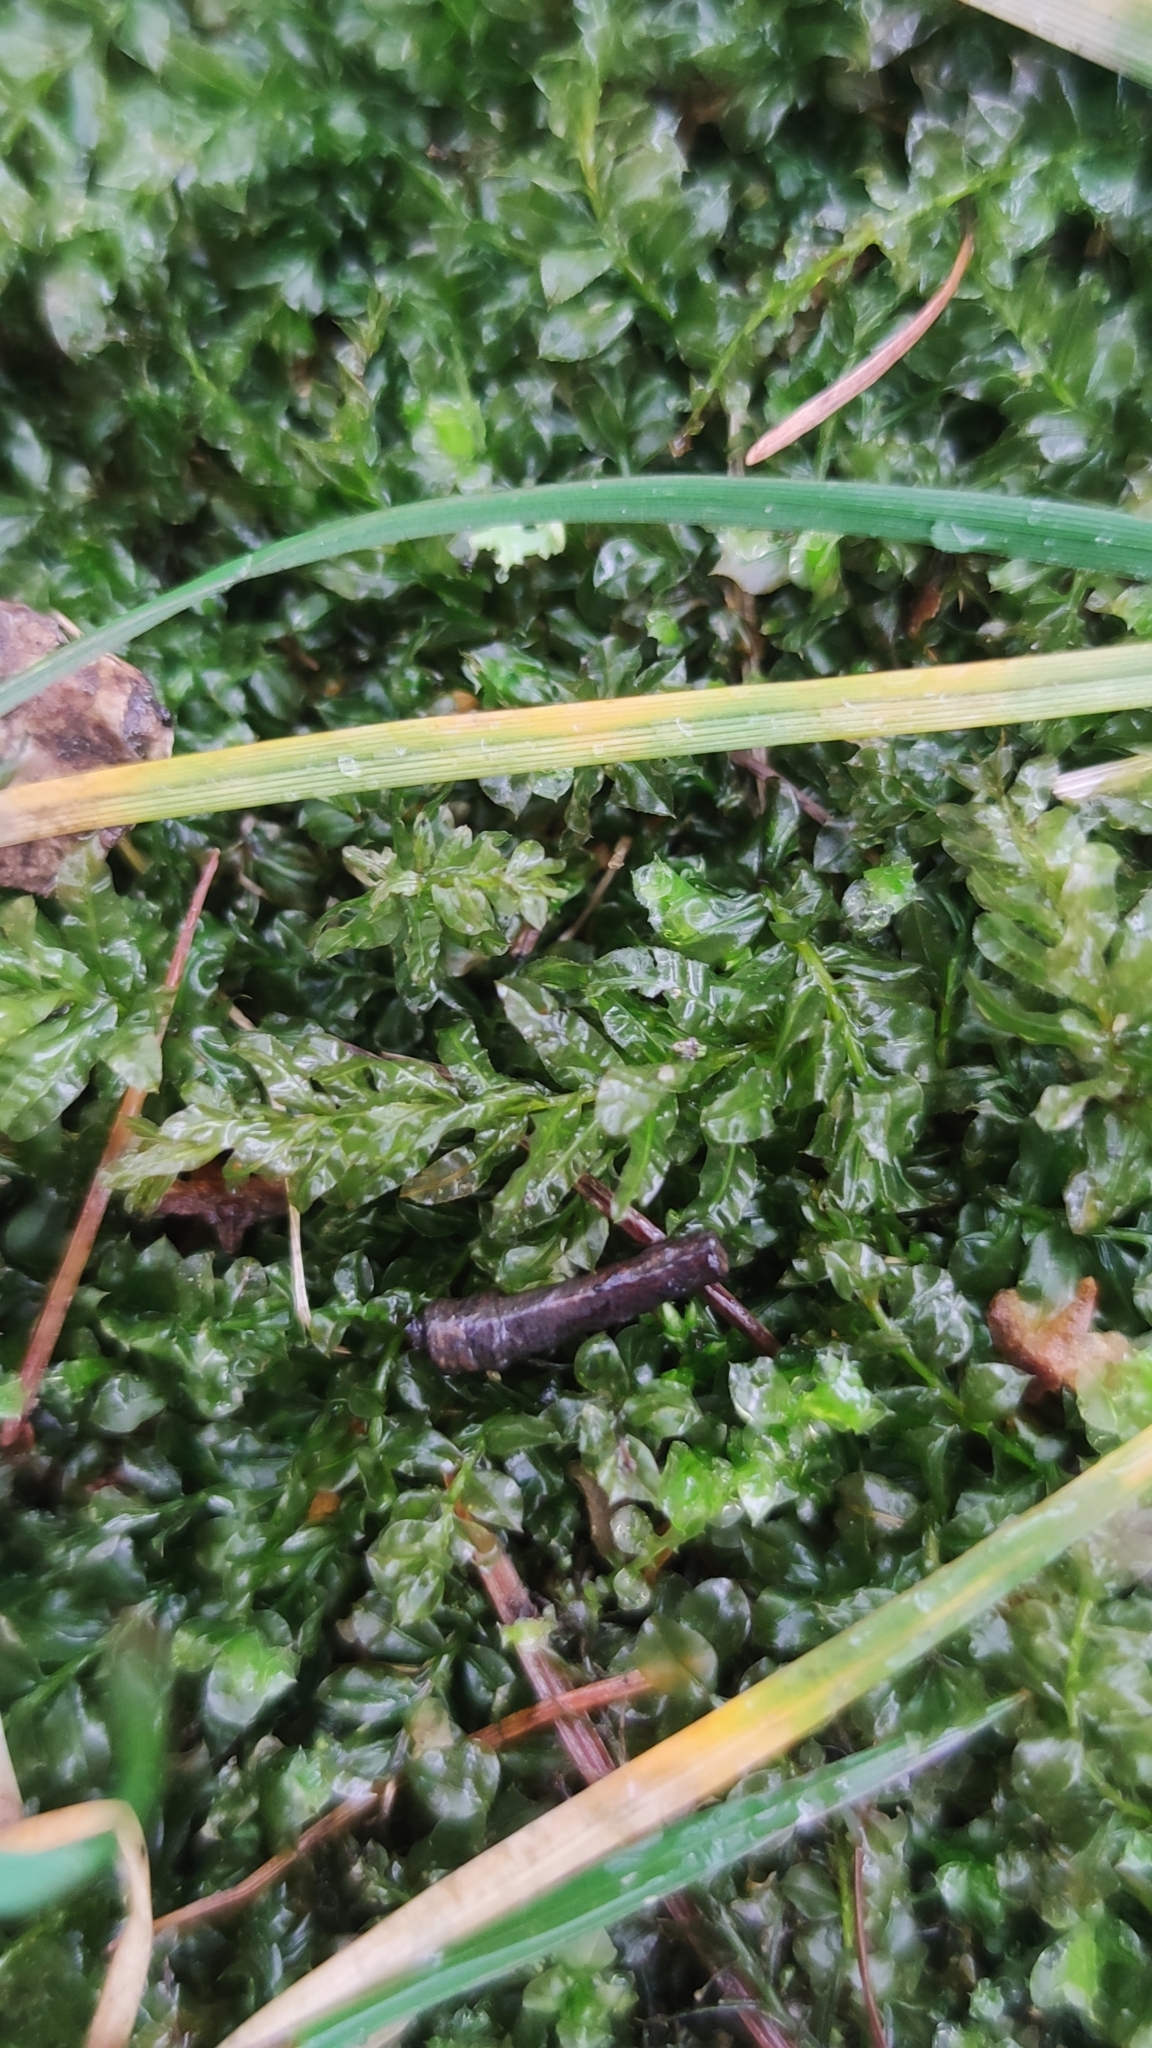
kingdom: Plantae
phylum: Bryophyta
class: Bryopsida
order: Bryales
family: Mniaceae
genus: Plagiomnium
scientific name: Plagiomnium undulatum
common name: Hart's-tongue thyme-moss
